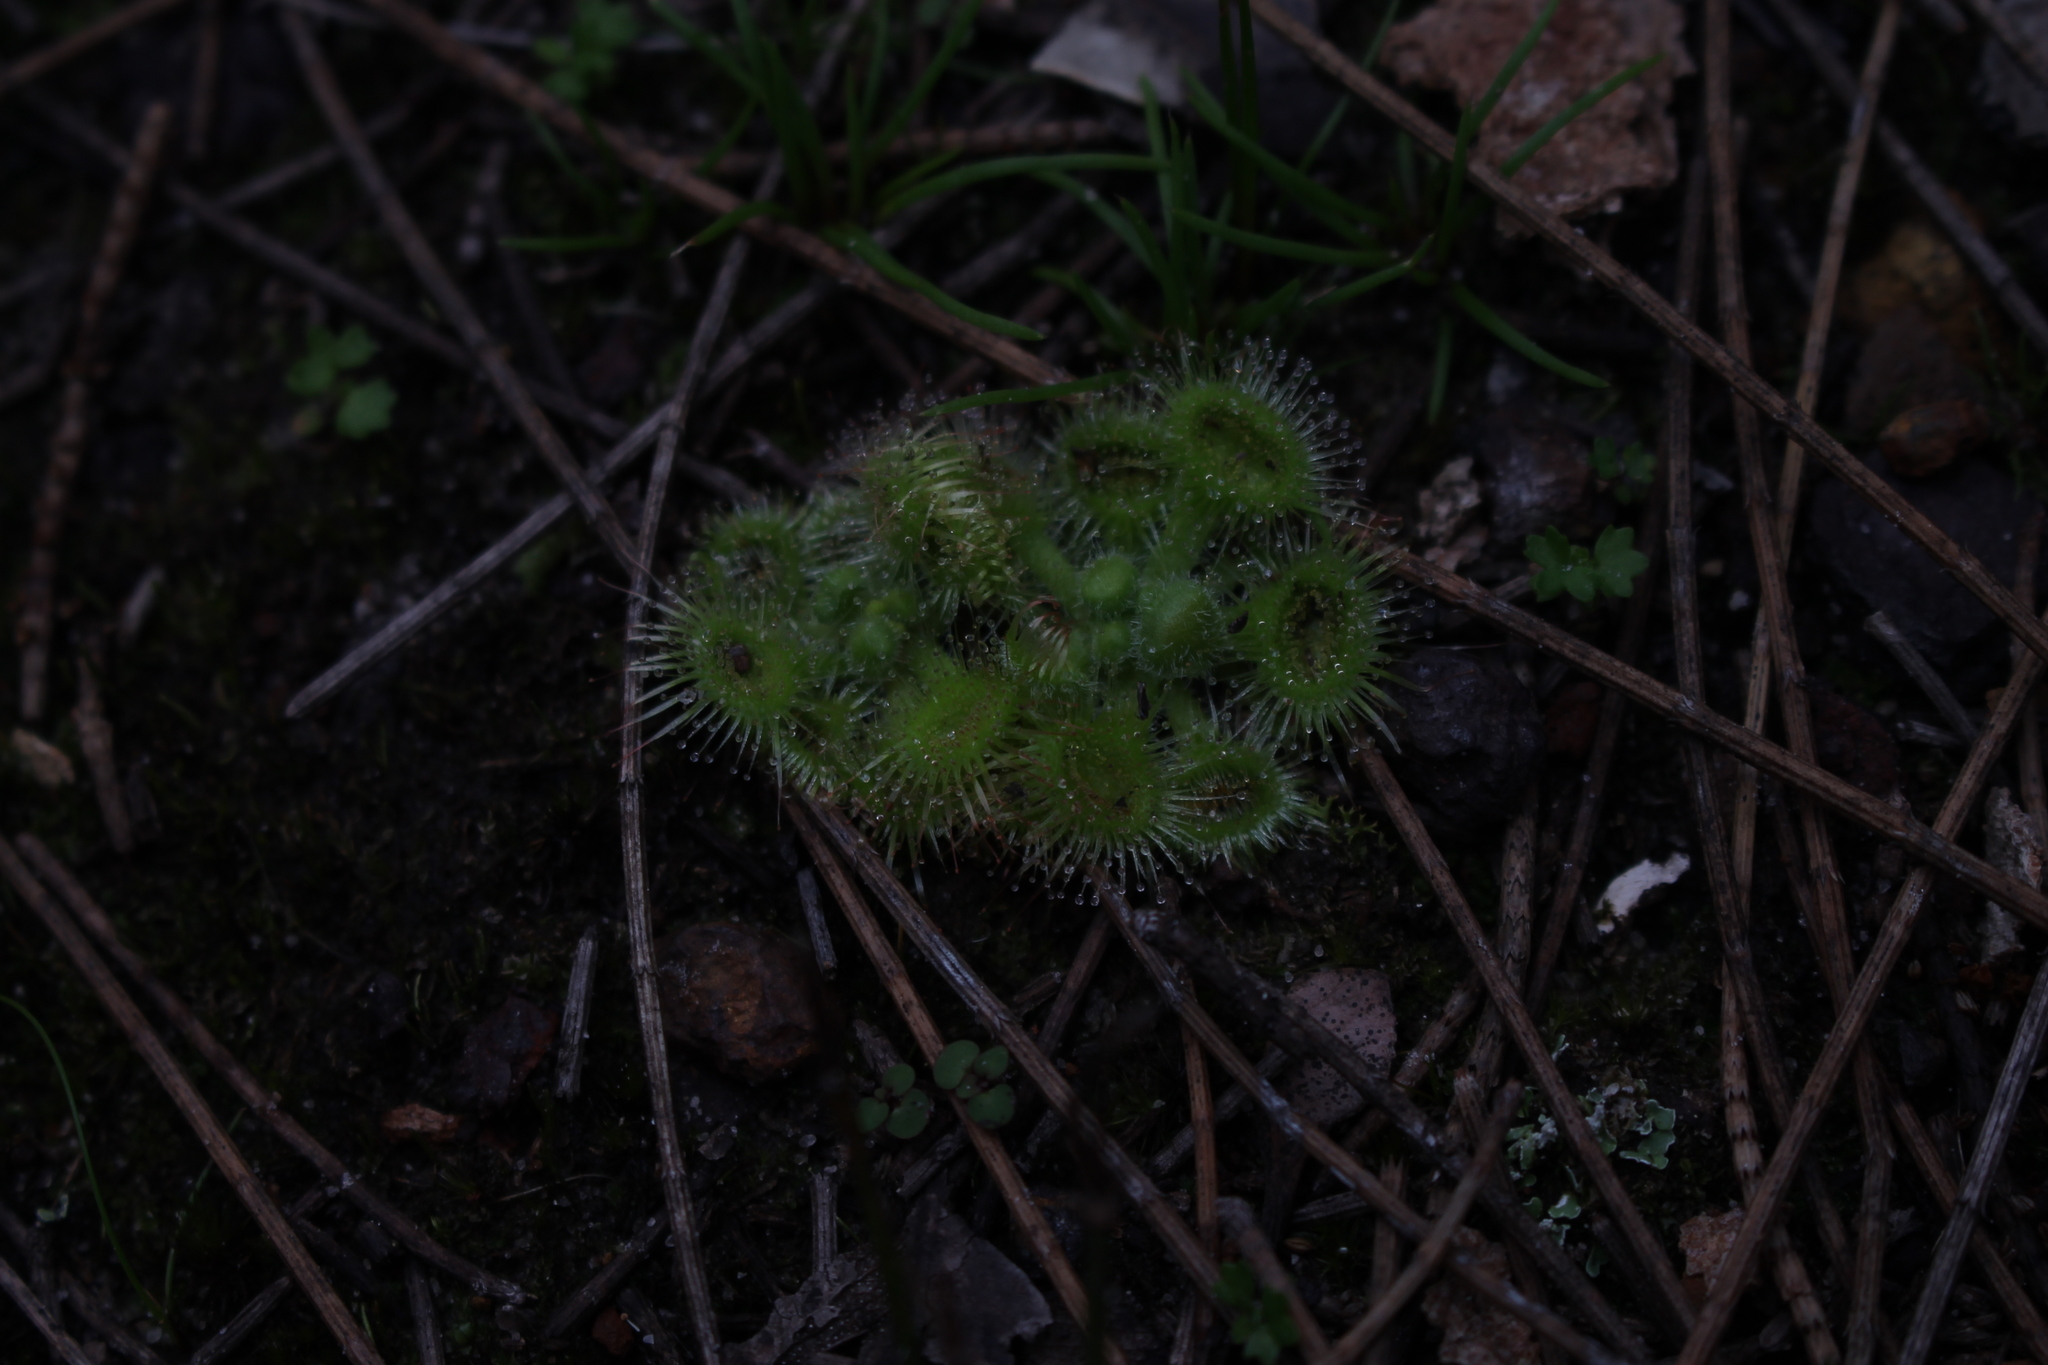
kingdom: Plantae
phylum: Tracheophyta
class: Magnoliopsida
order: Caryophyllales
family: Droseraceae
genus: Drosera
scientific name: Drosera glanduligera
